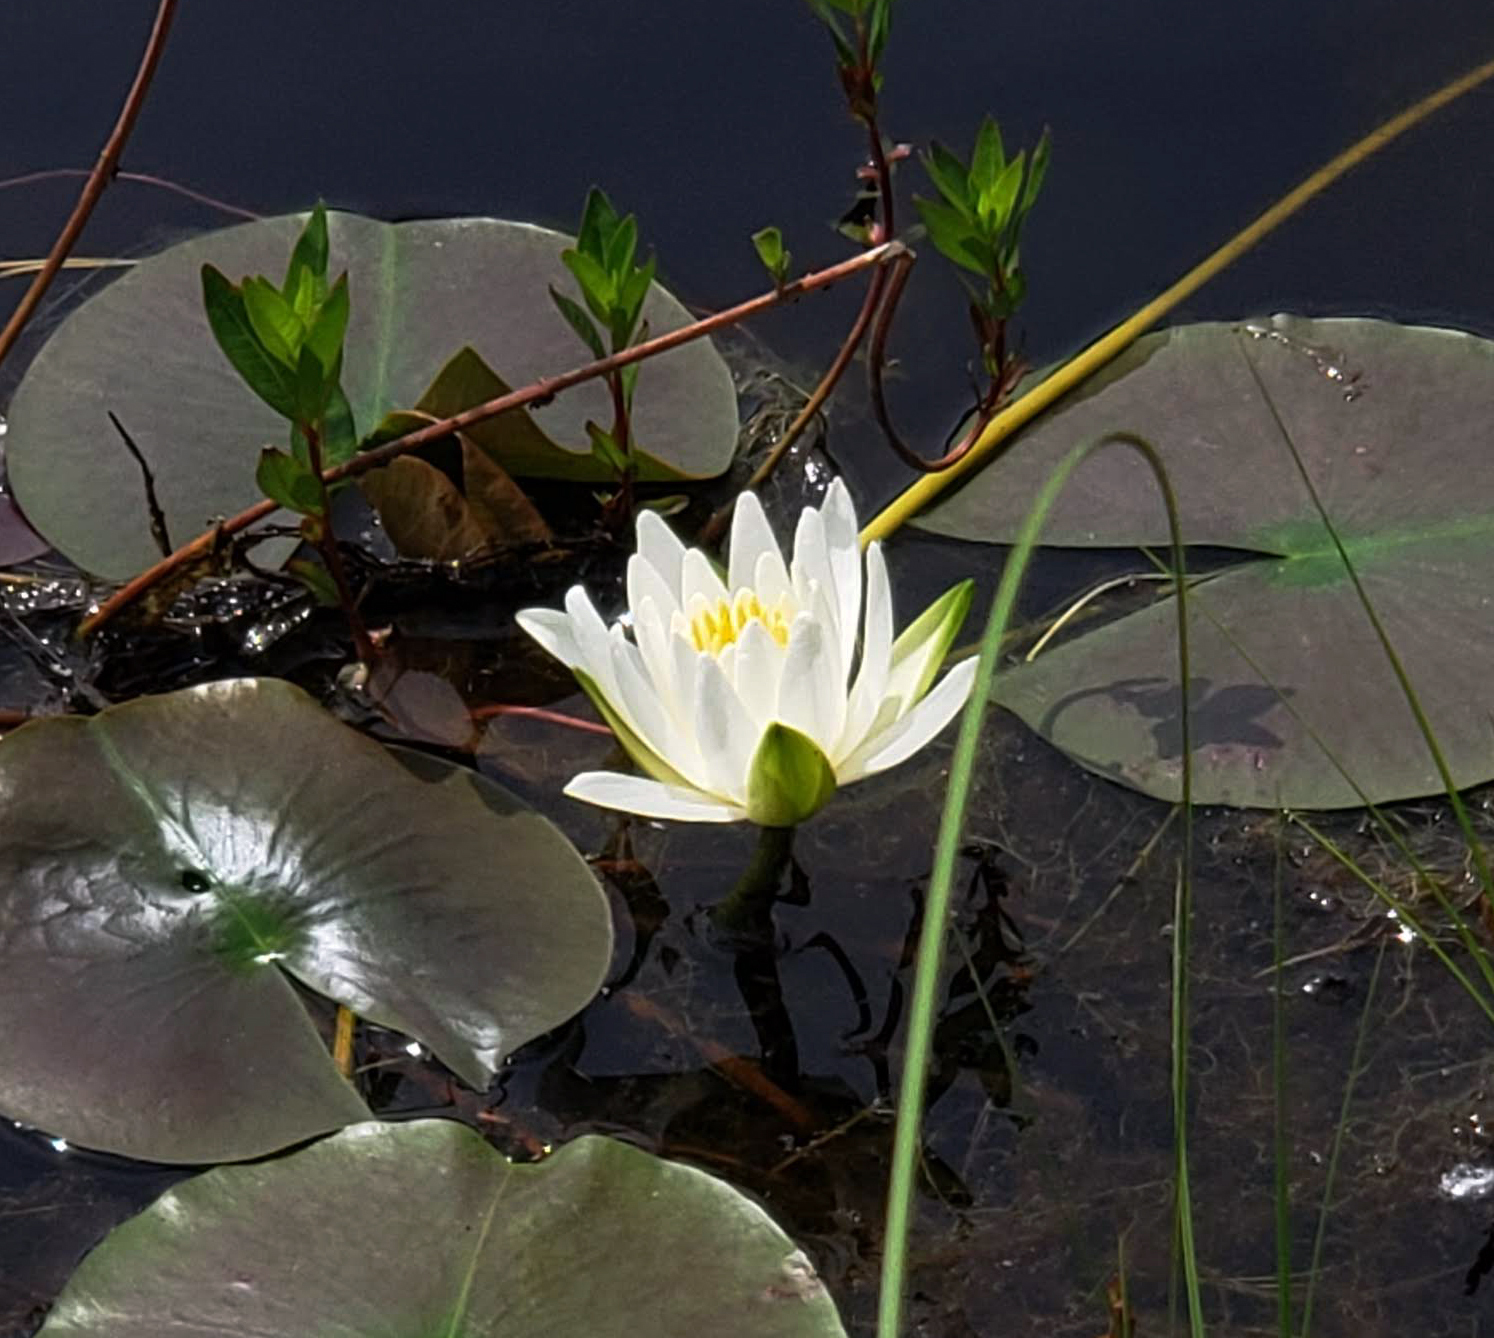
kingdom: Plantae
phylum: Tracheophyta
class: Magnoliopsida
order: Nymphaeales
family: Nymphaeaceae
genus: Nymphaea
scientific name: Nymphaea odorata
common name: Fragrant water-lily
